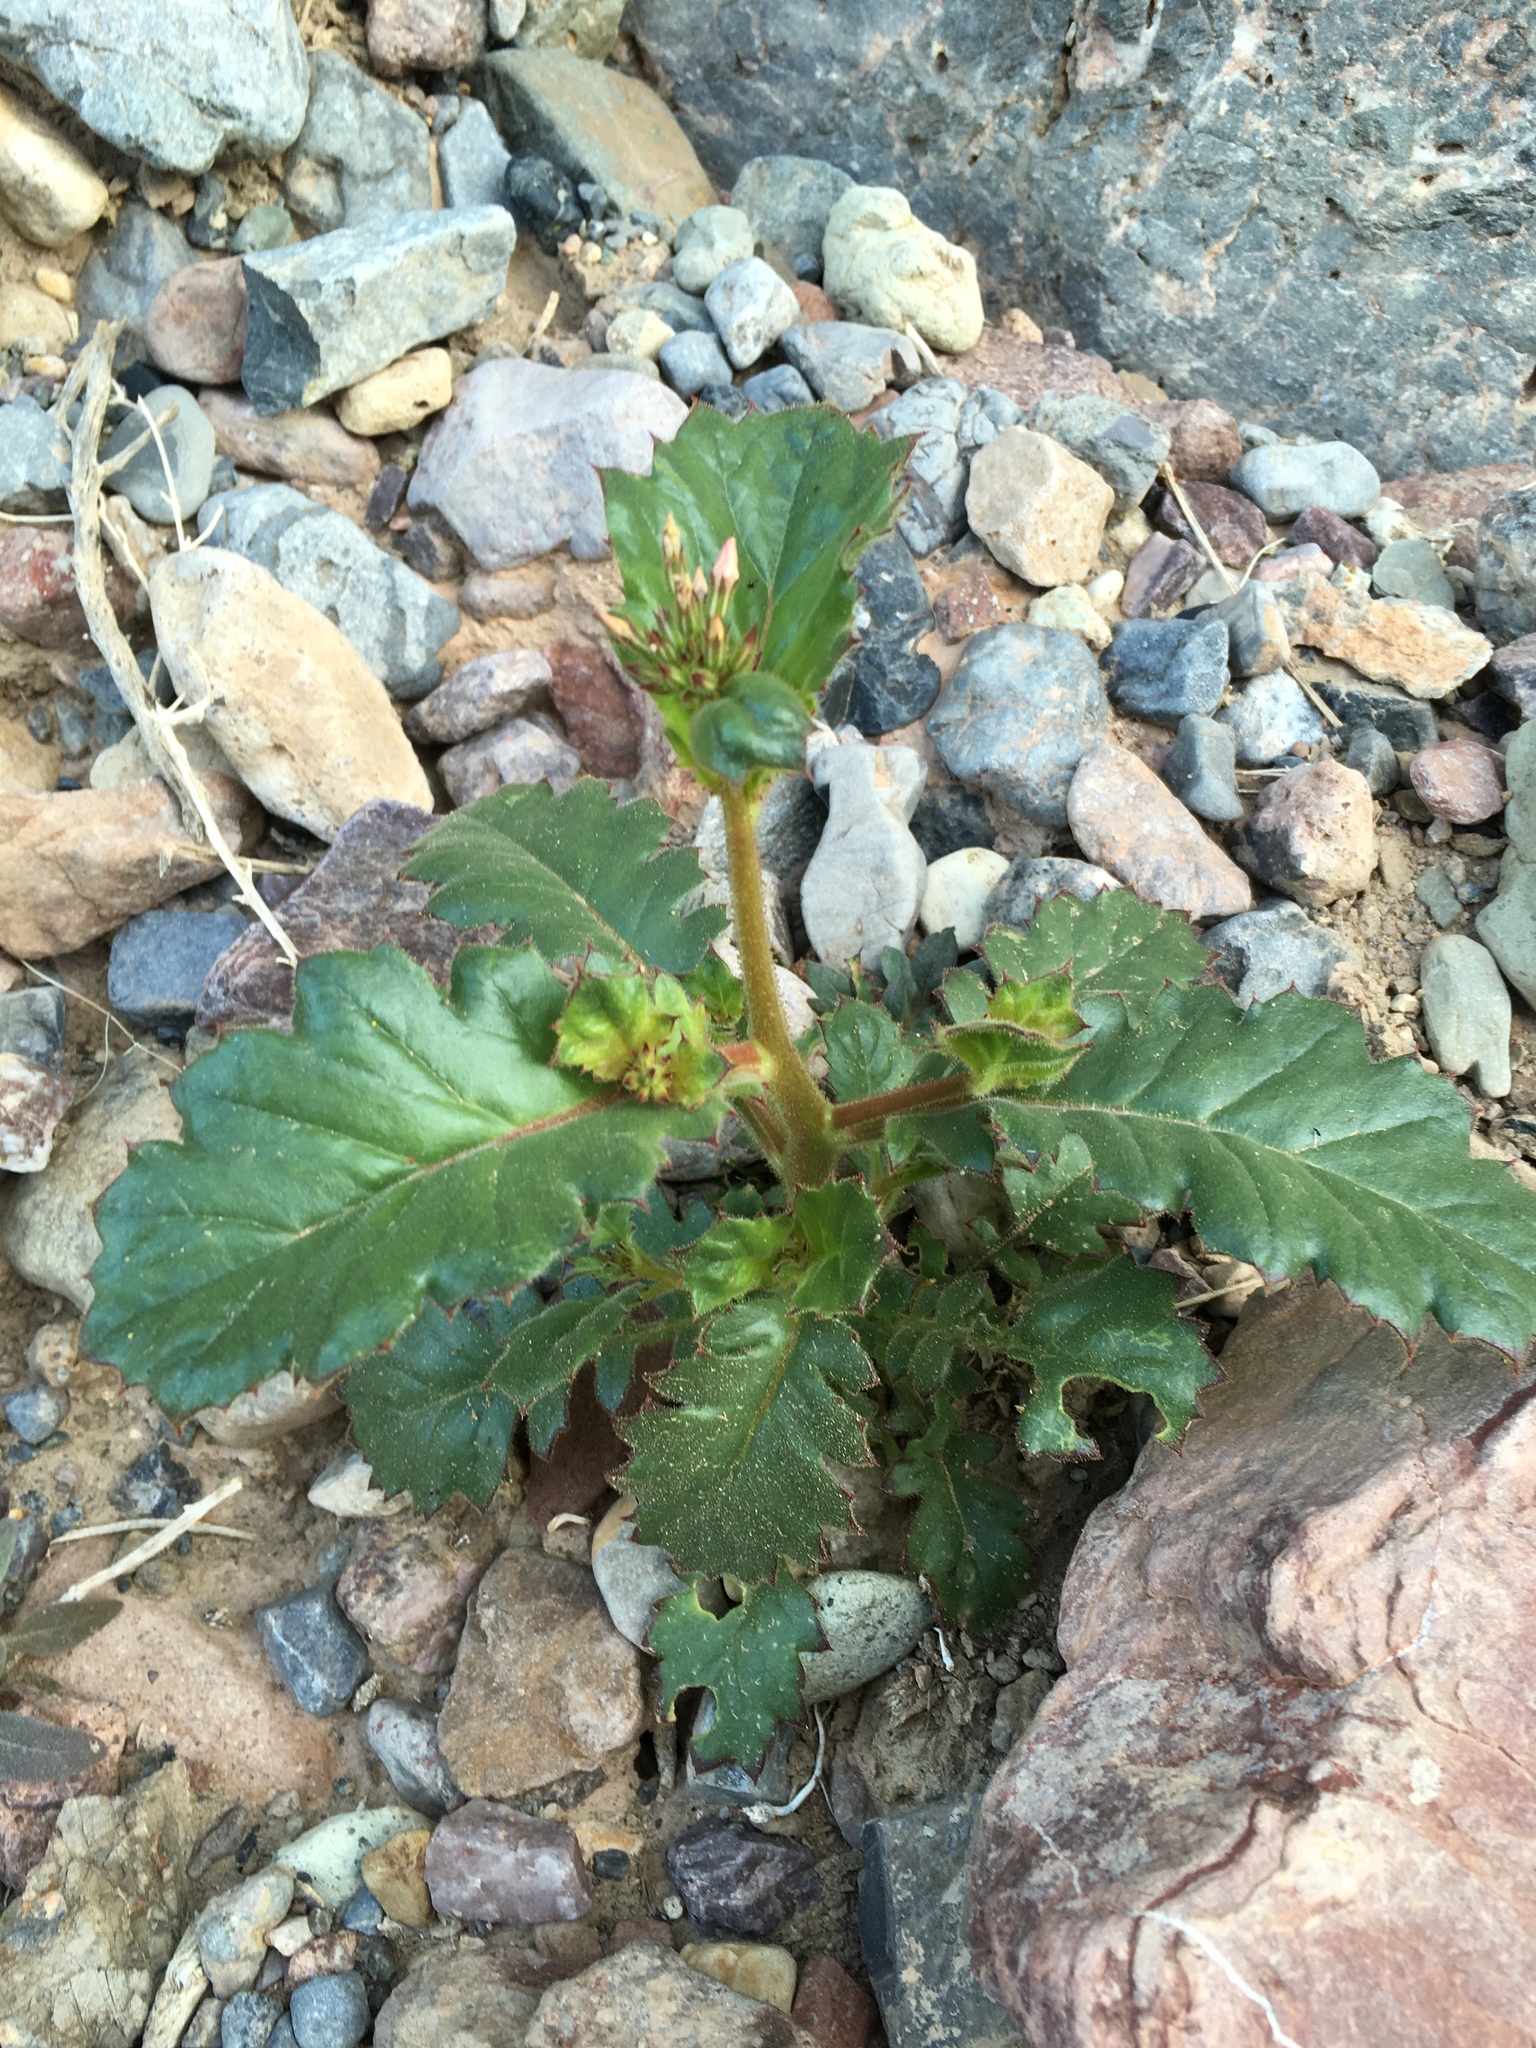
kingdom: Plantae
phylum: Tracheophyta
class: Magnoliopsida
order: Ericales
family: Polemoniaceae
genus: Aliciella
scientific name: Aliciella latifolia
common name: Broad-leaf gilia
